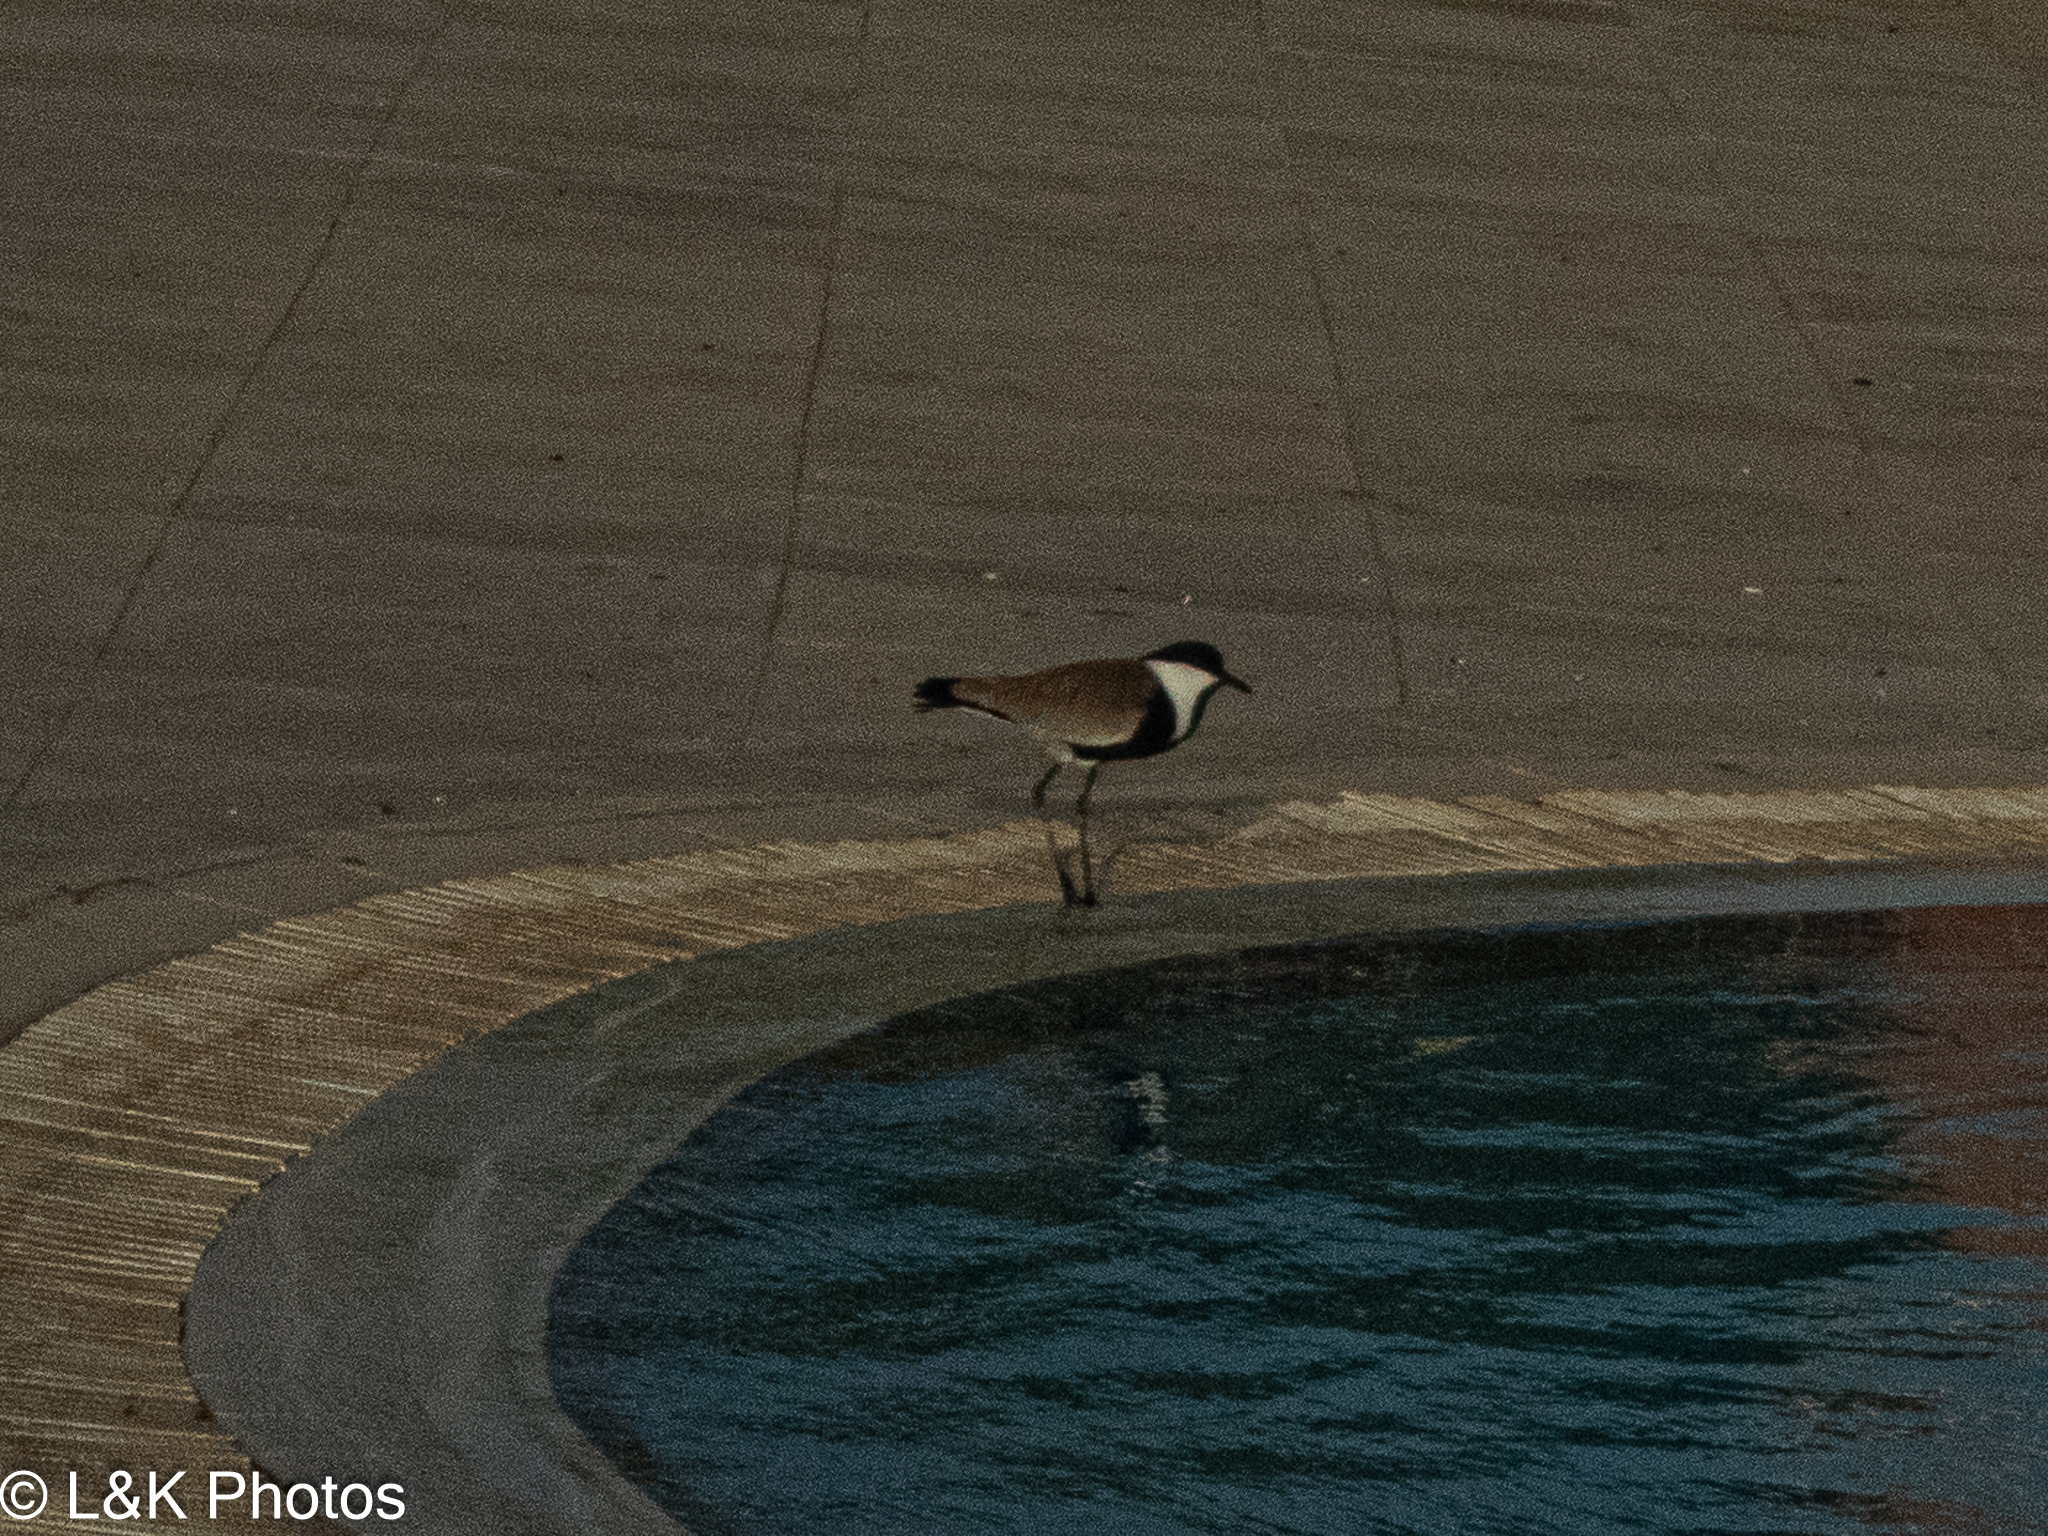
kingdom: Animalia
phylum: Chordata
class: Aves
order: Charadriiformes
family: Charadriidae
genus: Vanellus
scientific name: Vanellus spinosus
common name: Spur-winged lapwing
